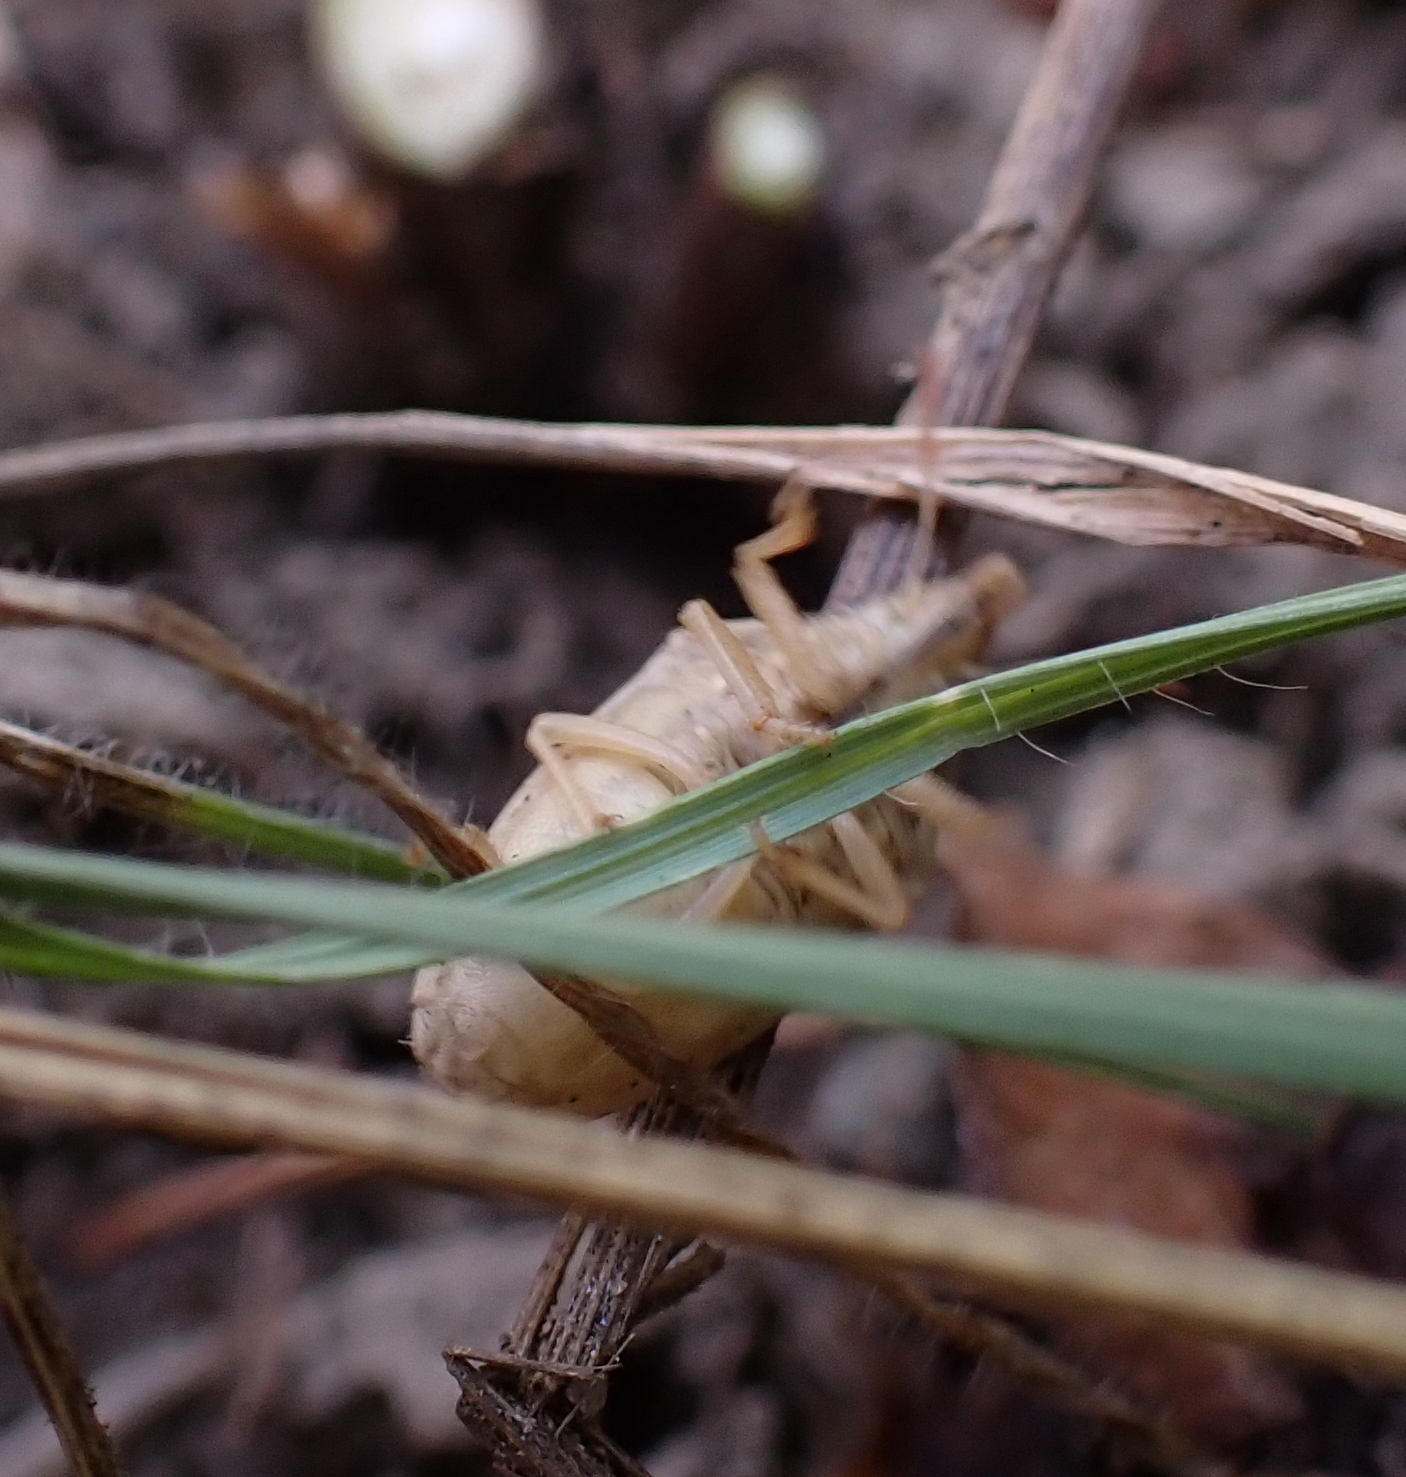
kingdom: Animalia
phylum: Arthropoda
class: Insecta
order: Hemiptera
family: Pentatomidae
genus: Aelia
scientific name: Aelia rostrata
